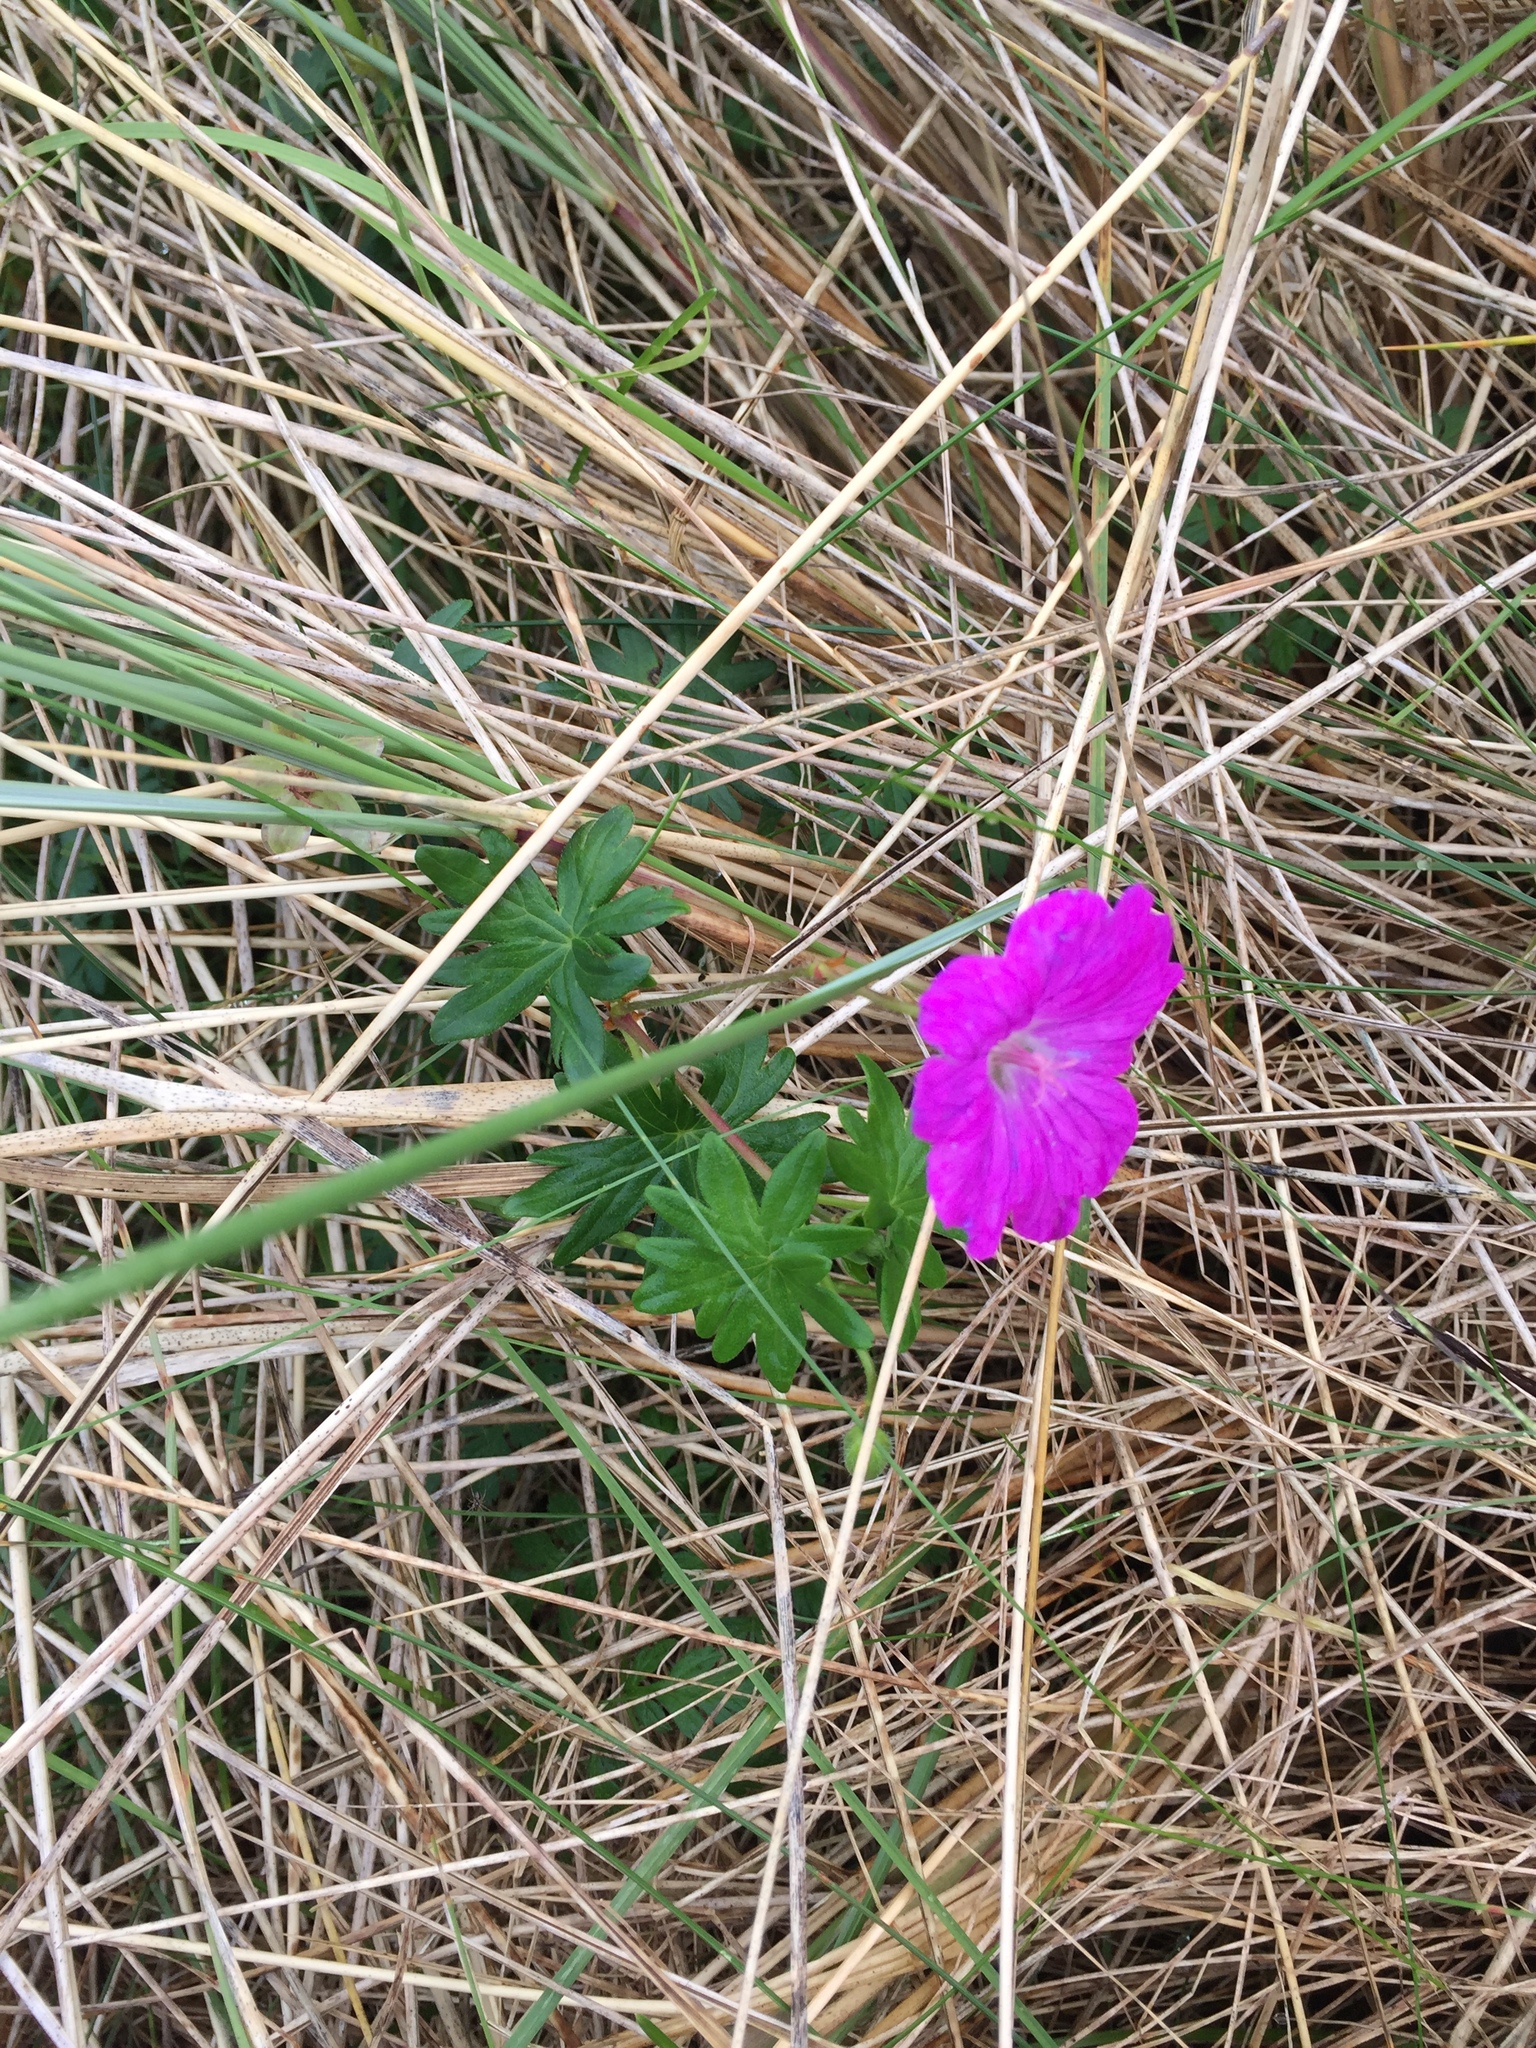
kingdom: Plantae
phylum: Tracheophyta
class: Magnoliopsida
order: Geraniales
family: Geraniaceae
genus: Geranium
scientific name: Geranium sanguineum
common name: Bloody crane's-bill
